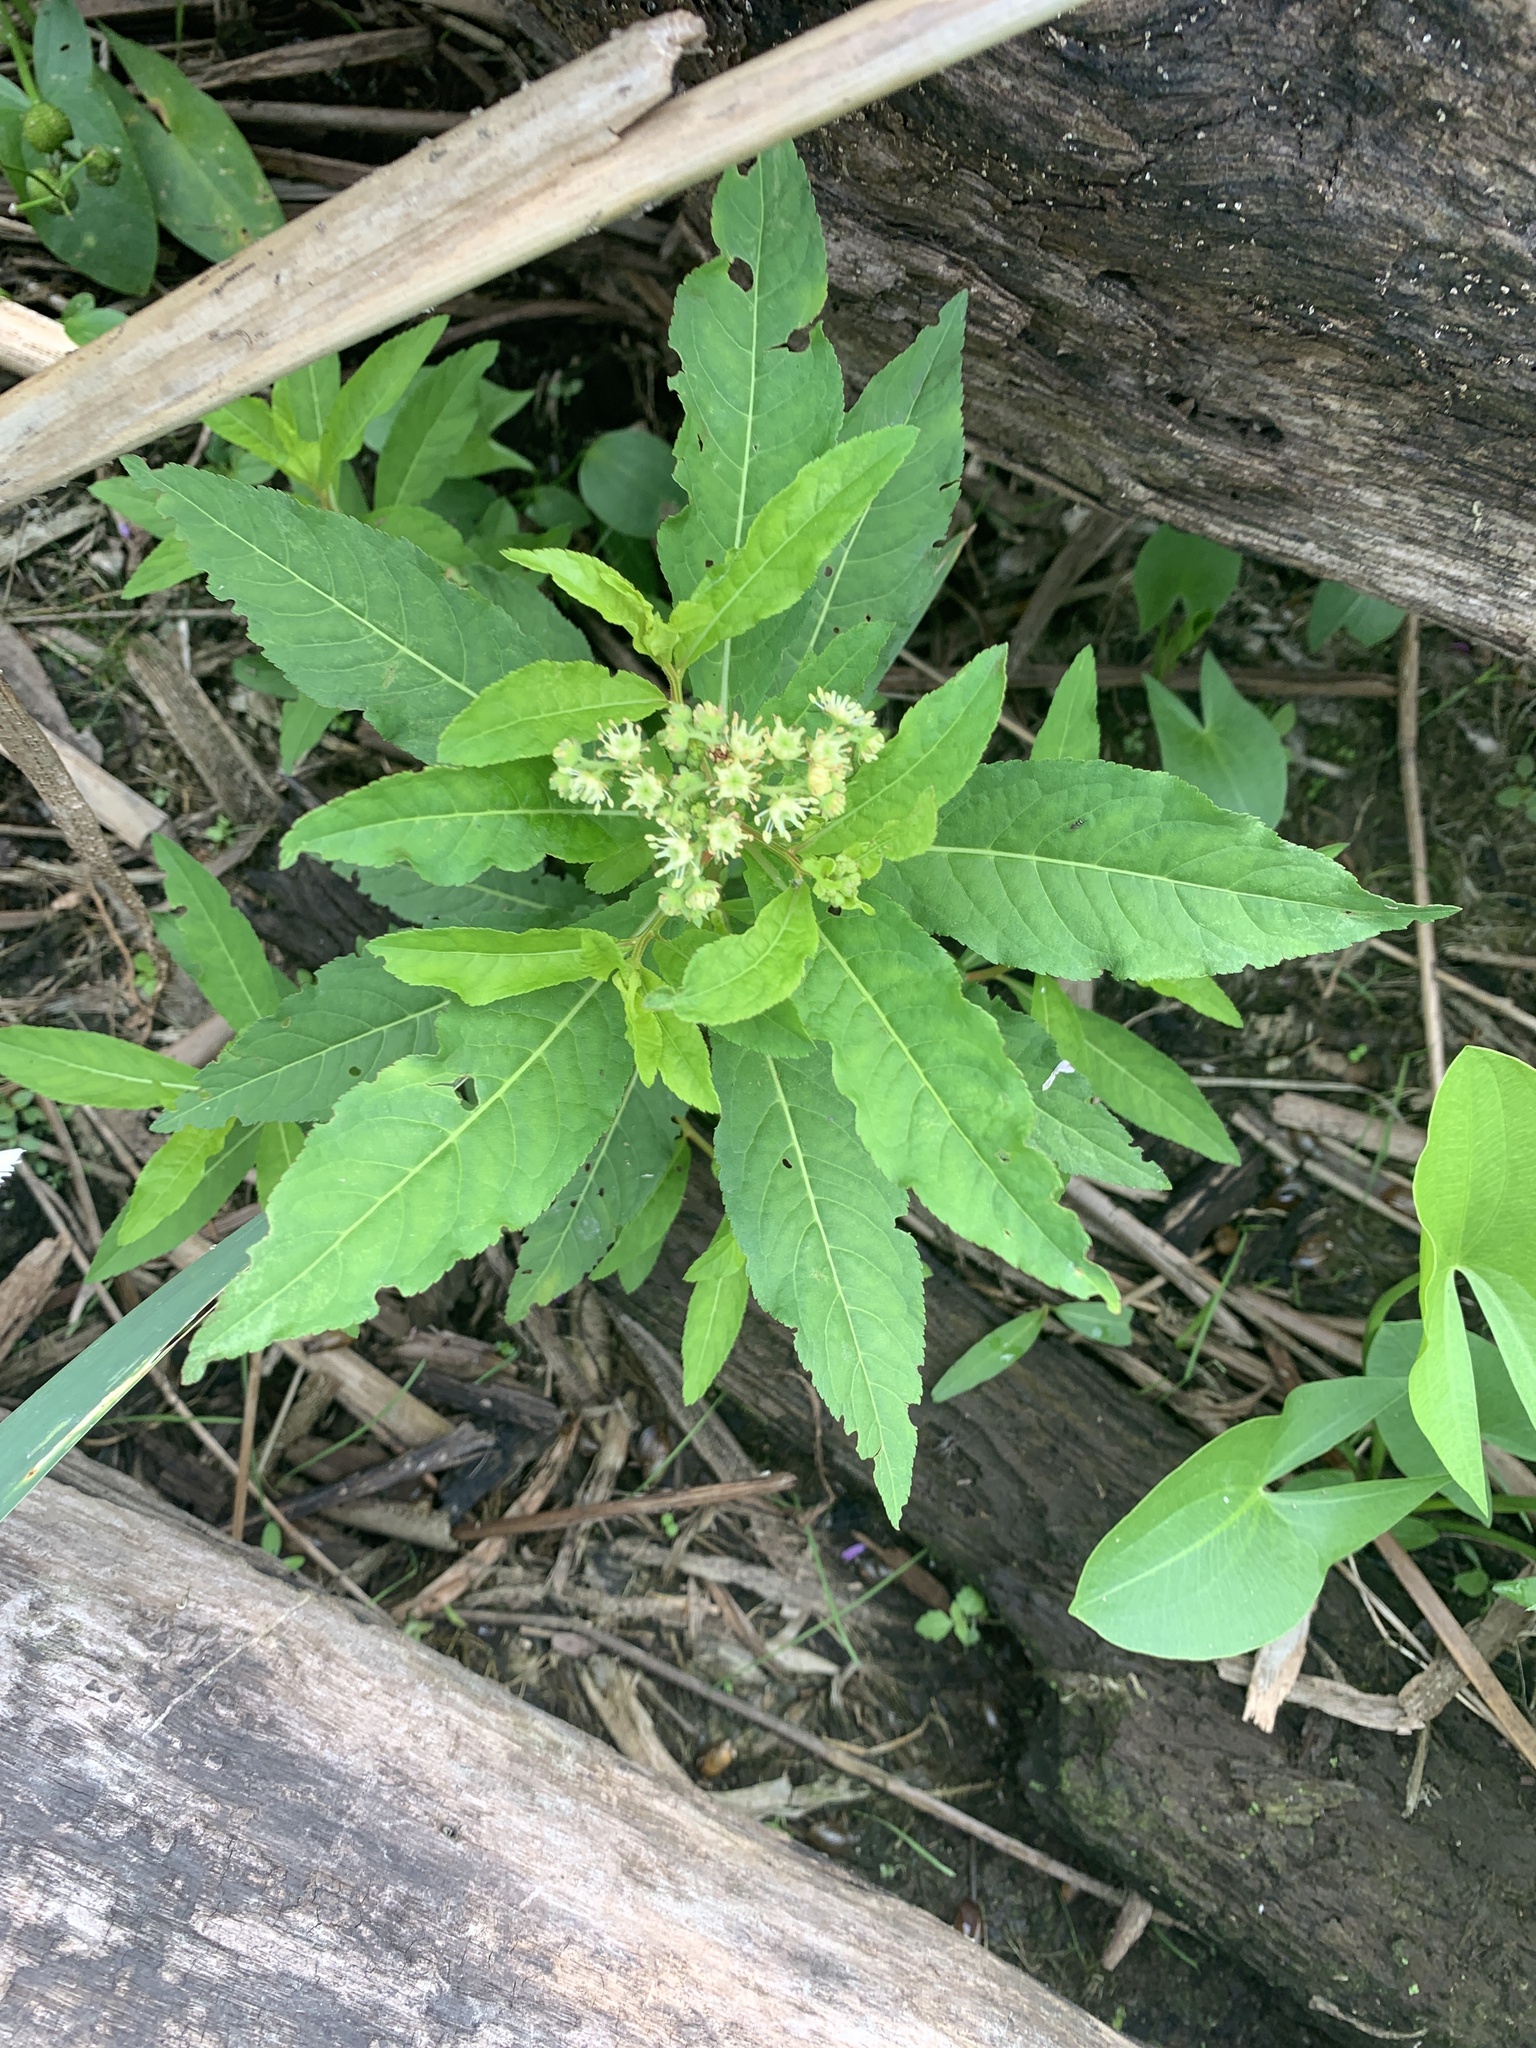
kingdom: Plantae
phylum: Tracheophyta
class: Magnoliopsida
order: Saxifragales
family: Penthoraceae
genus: Penthorum
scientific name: Penthorum sedoides
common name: Ditch stonecrop
